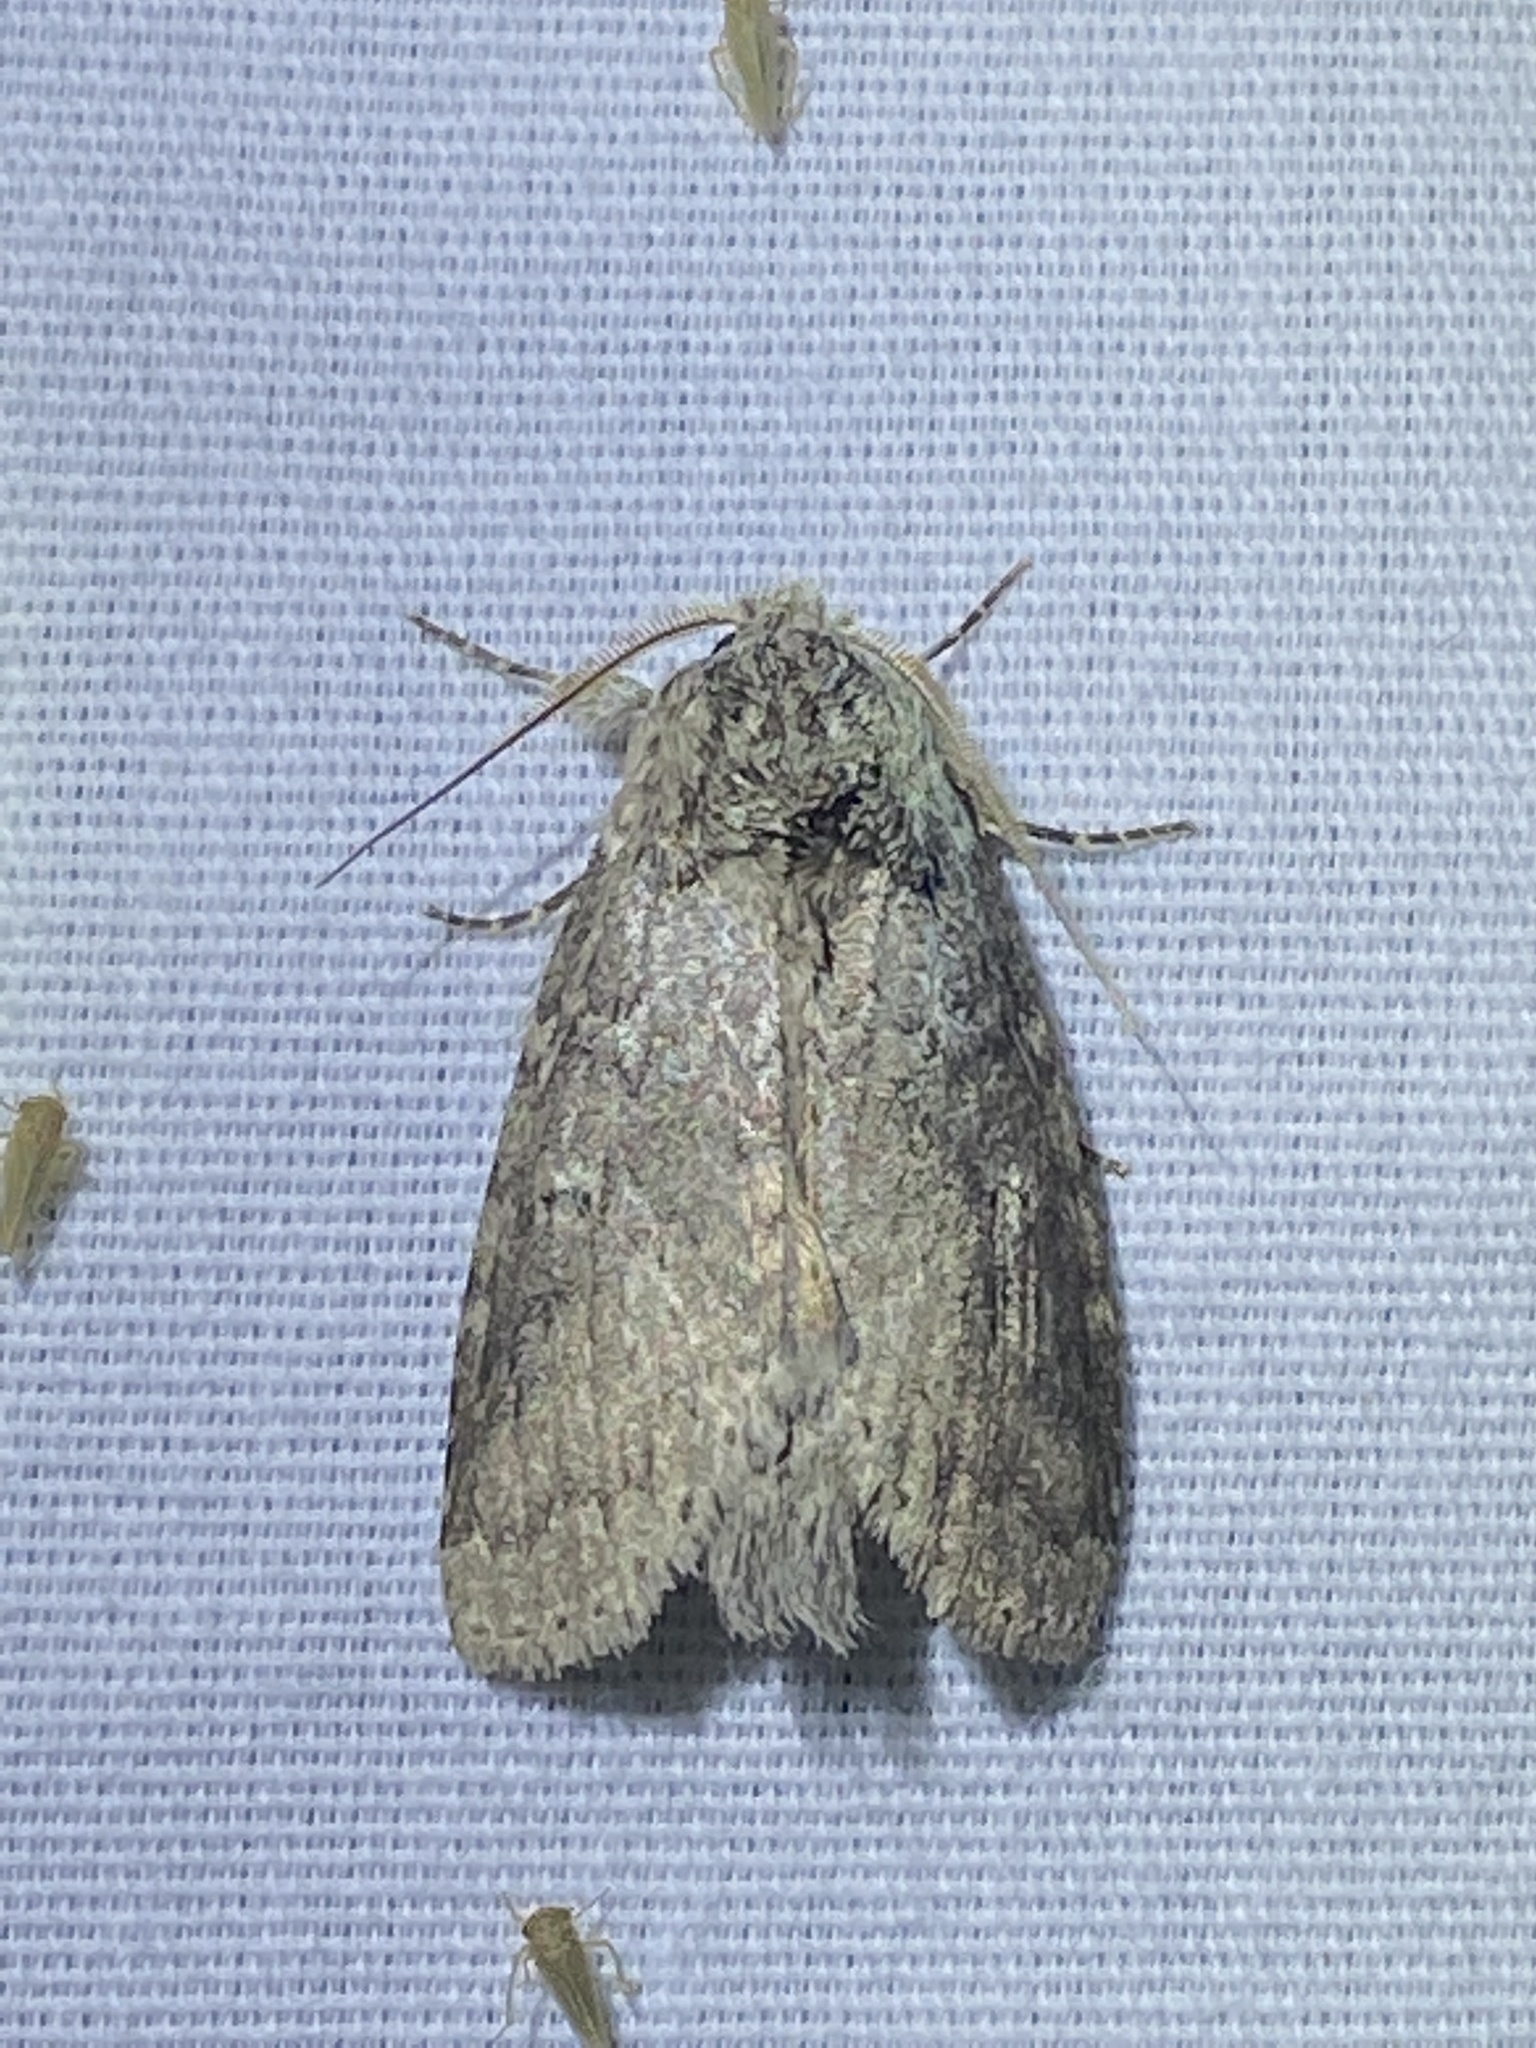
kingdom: Animalia
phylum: Arthropoda
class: Insecta
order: Lepidoptera
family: Notodontidae
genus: Lochmaeus
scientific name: Lochmaeus manteo
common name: Variable oakleaf caterpillar moth
